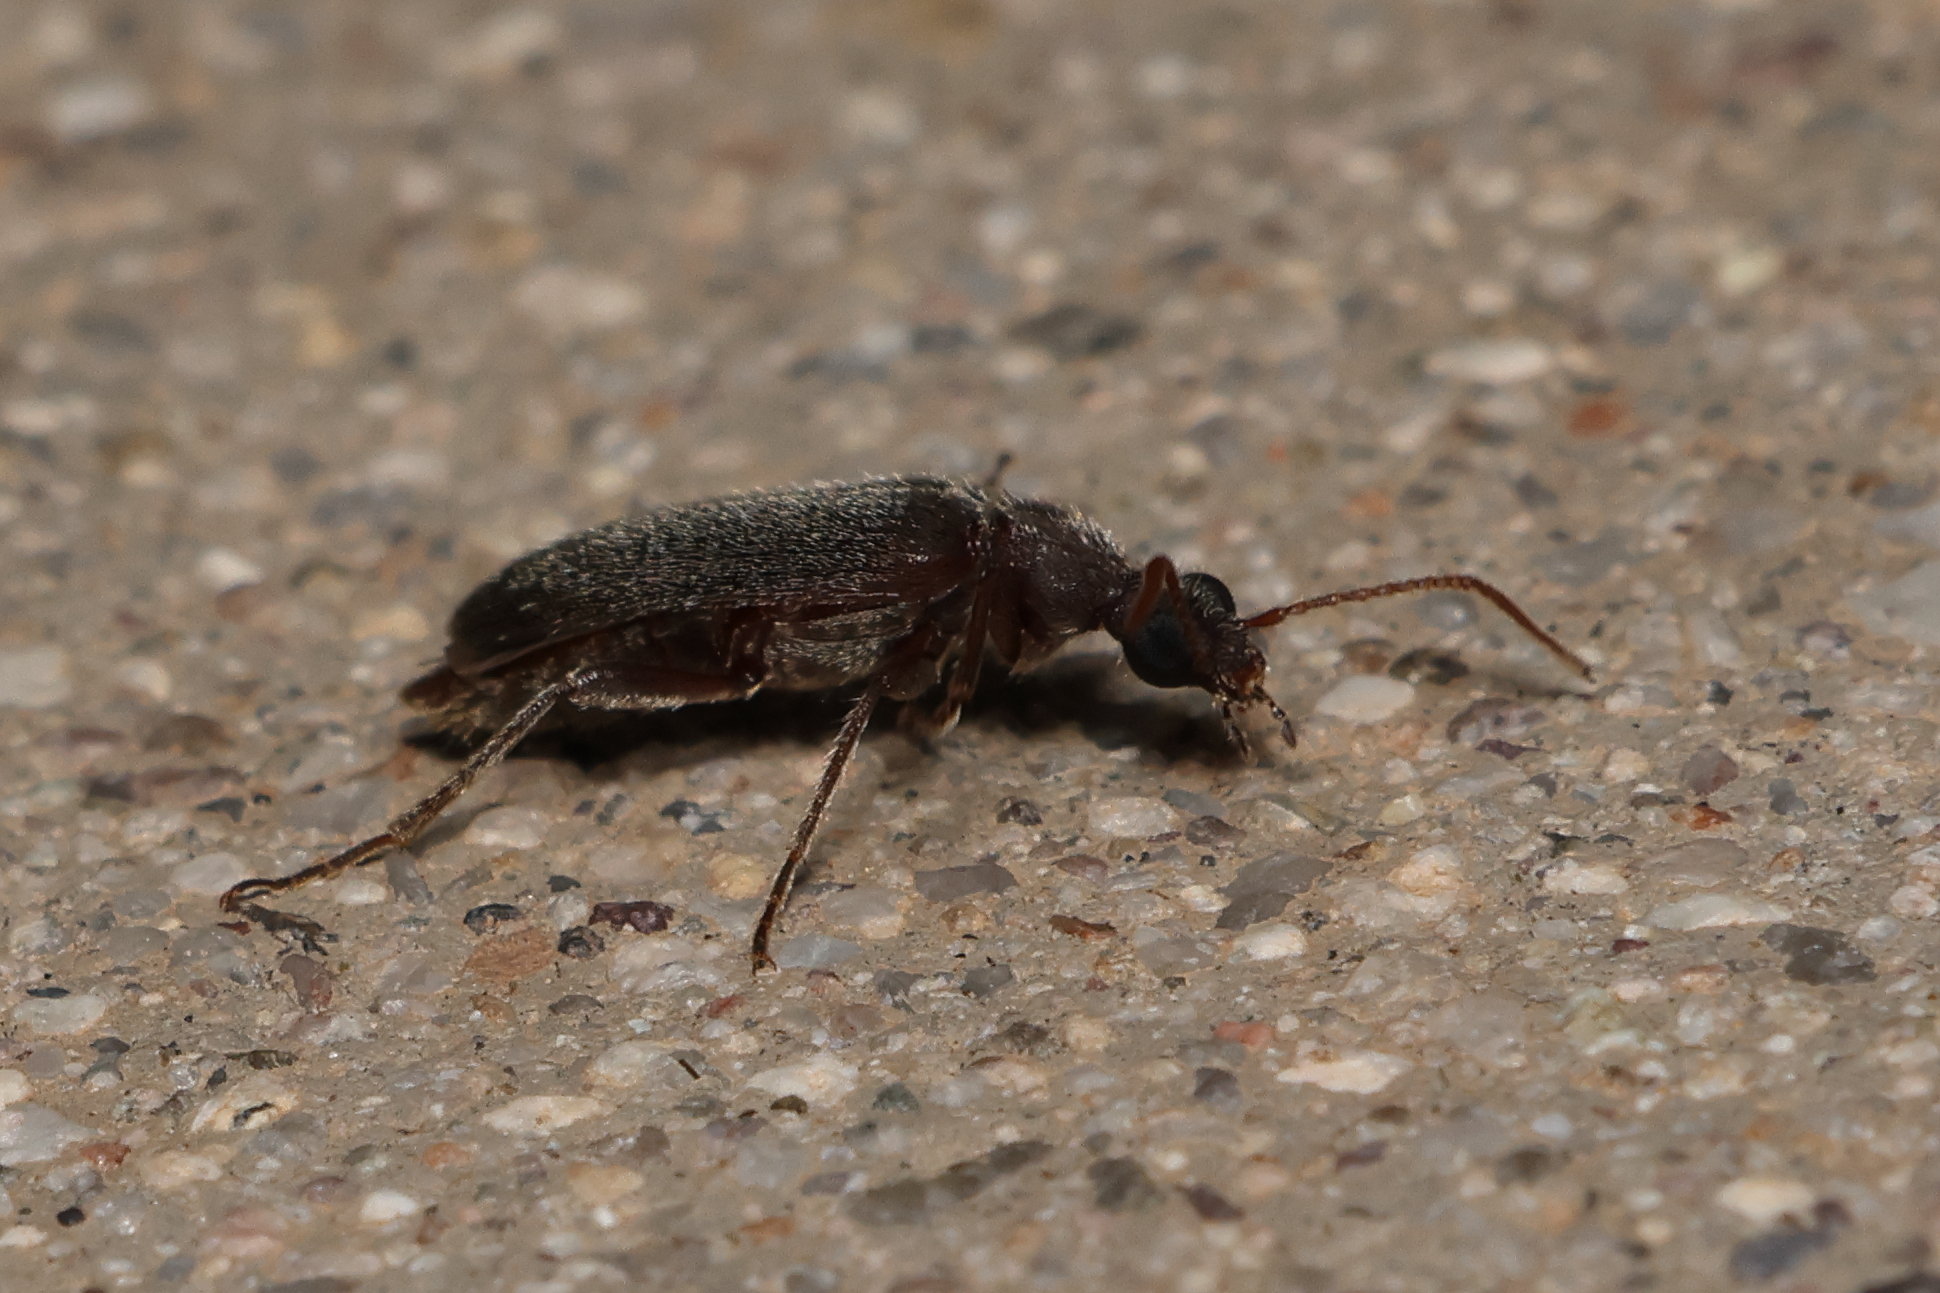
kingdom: Animalia
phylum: Arthropoda
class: Insecta
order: Coleoptera
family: Anthicidae
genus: Bactrocerus
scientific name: Bactrocerus concolor
